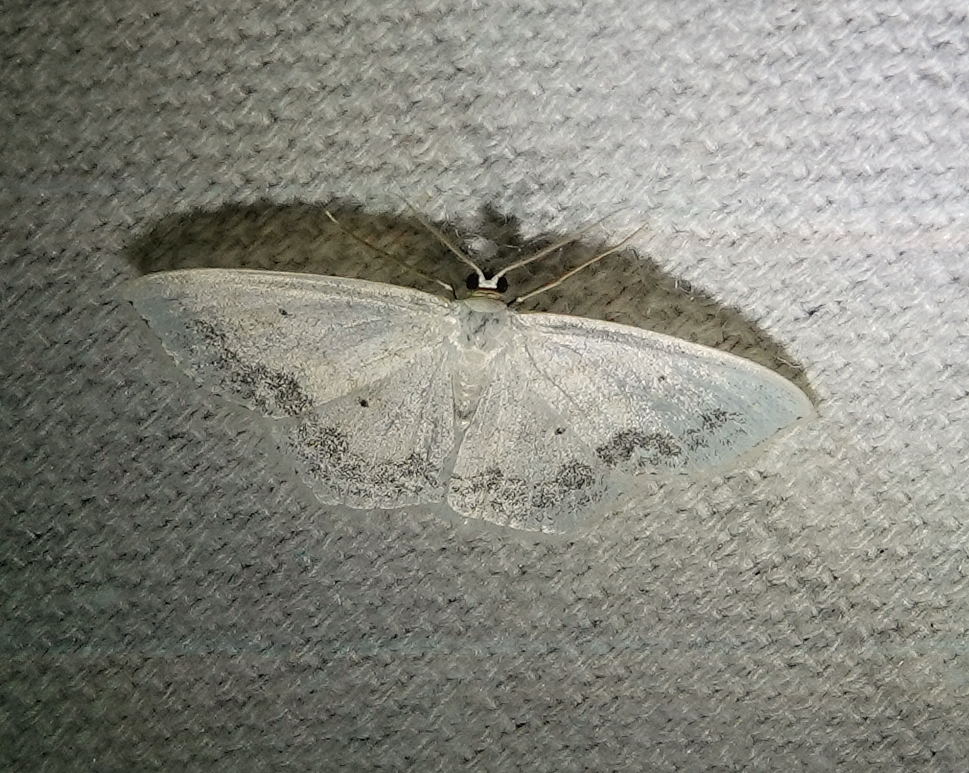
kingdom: Animalia
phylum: Arthropoda
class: Insecta
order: Lepidoptera
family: Geometridae
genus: Scopula
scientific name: Scopula limboundata
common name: Large lace border
